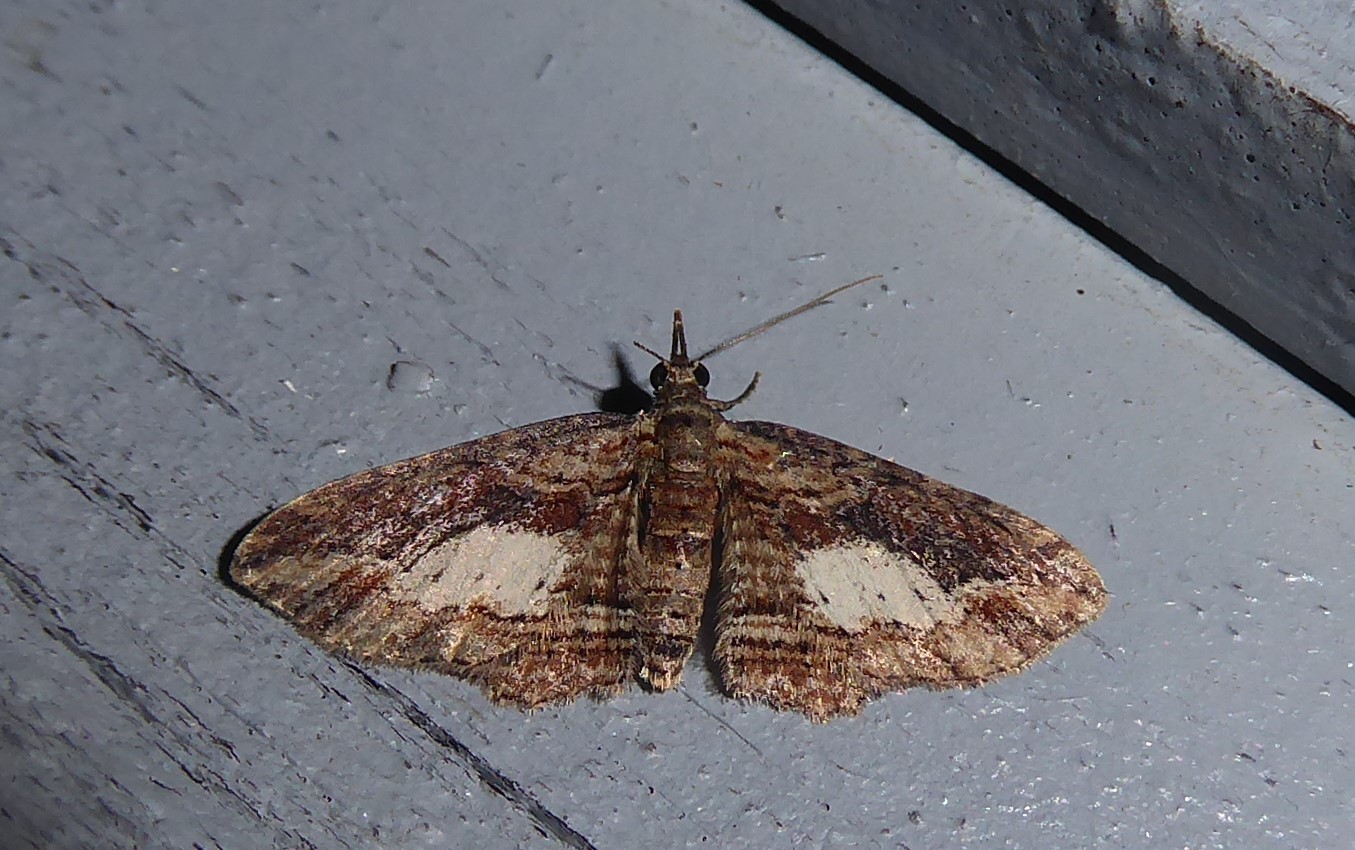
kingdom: Animalia
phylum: Arthropoda
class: Insecta
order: Lepidoptera
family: Geometridae
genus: Chloroclystis
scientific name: Chloroclystis filata
